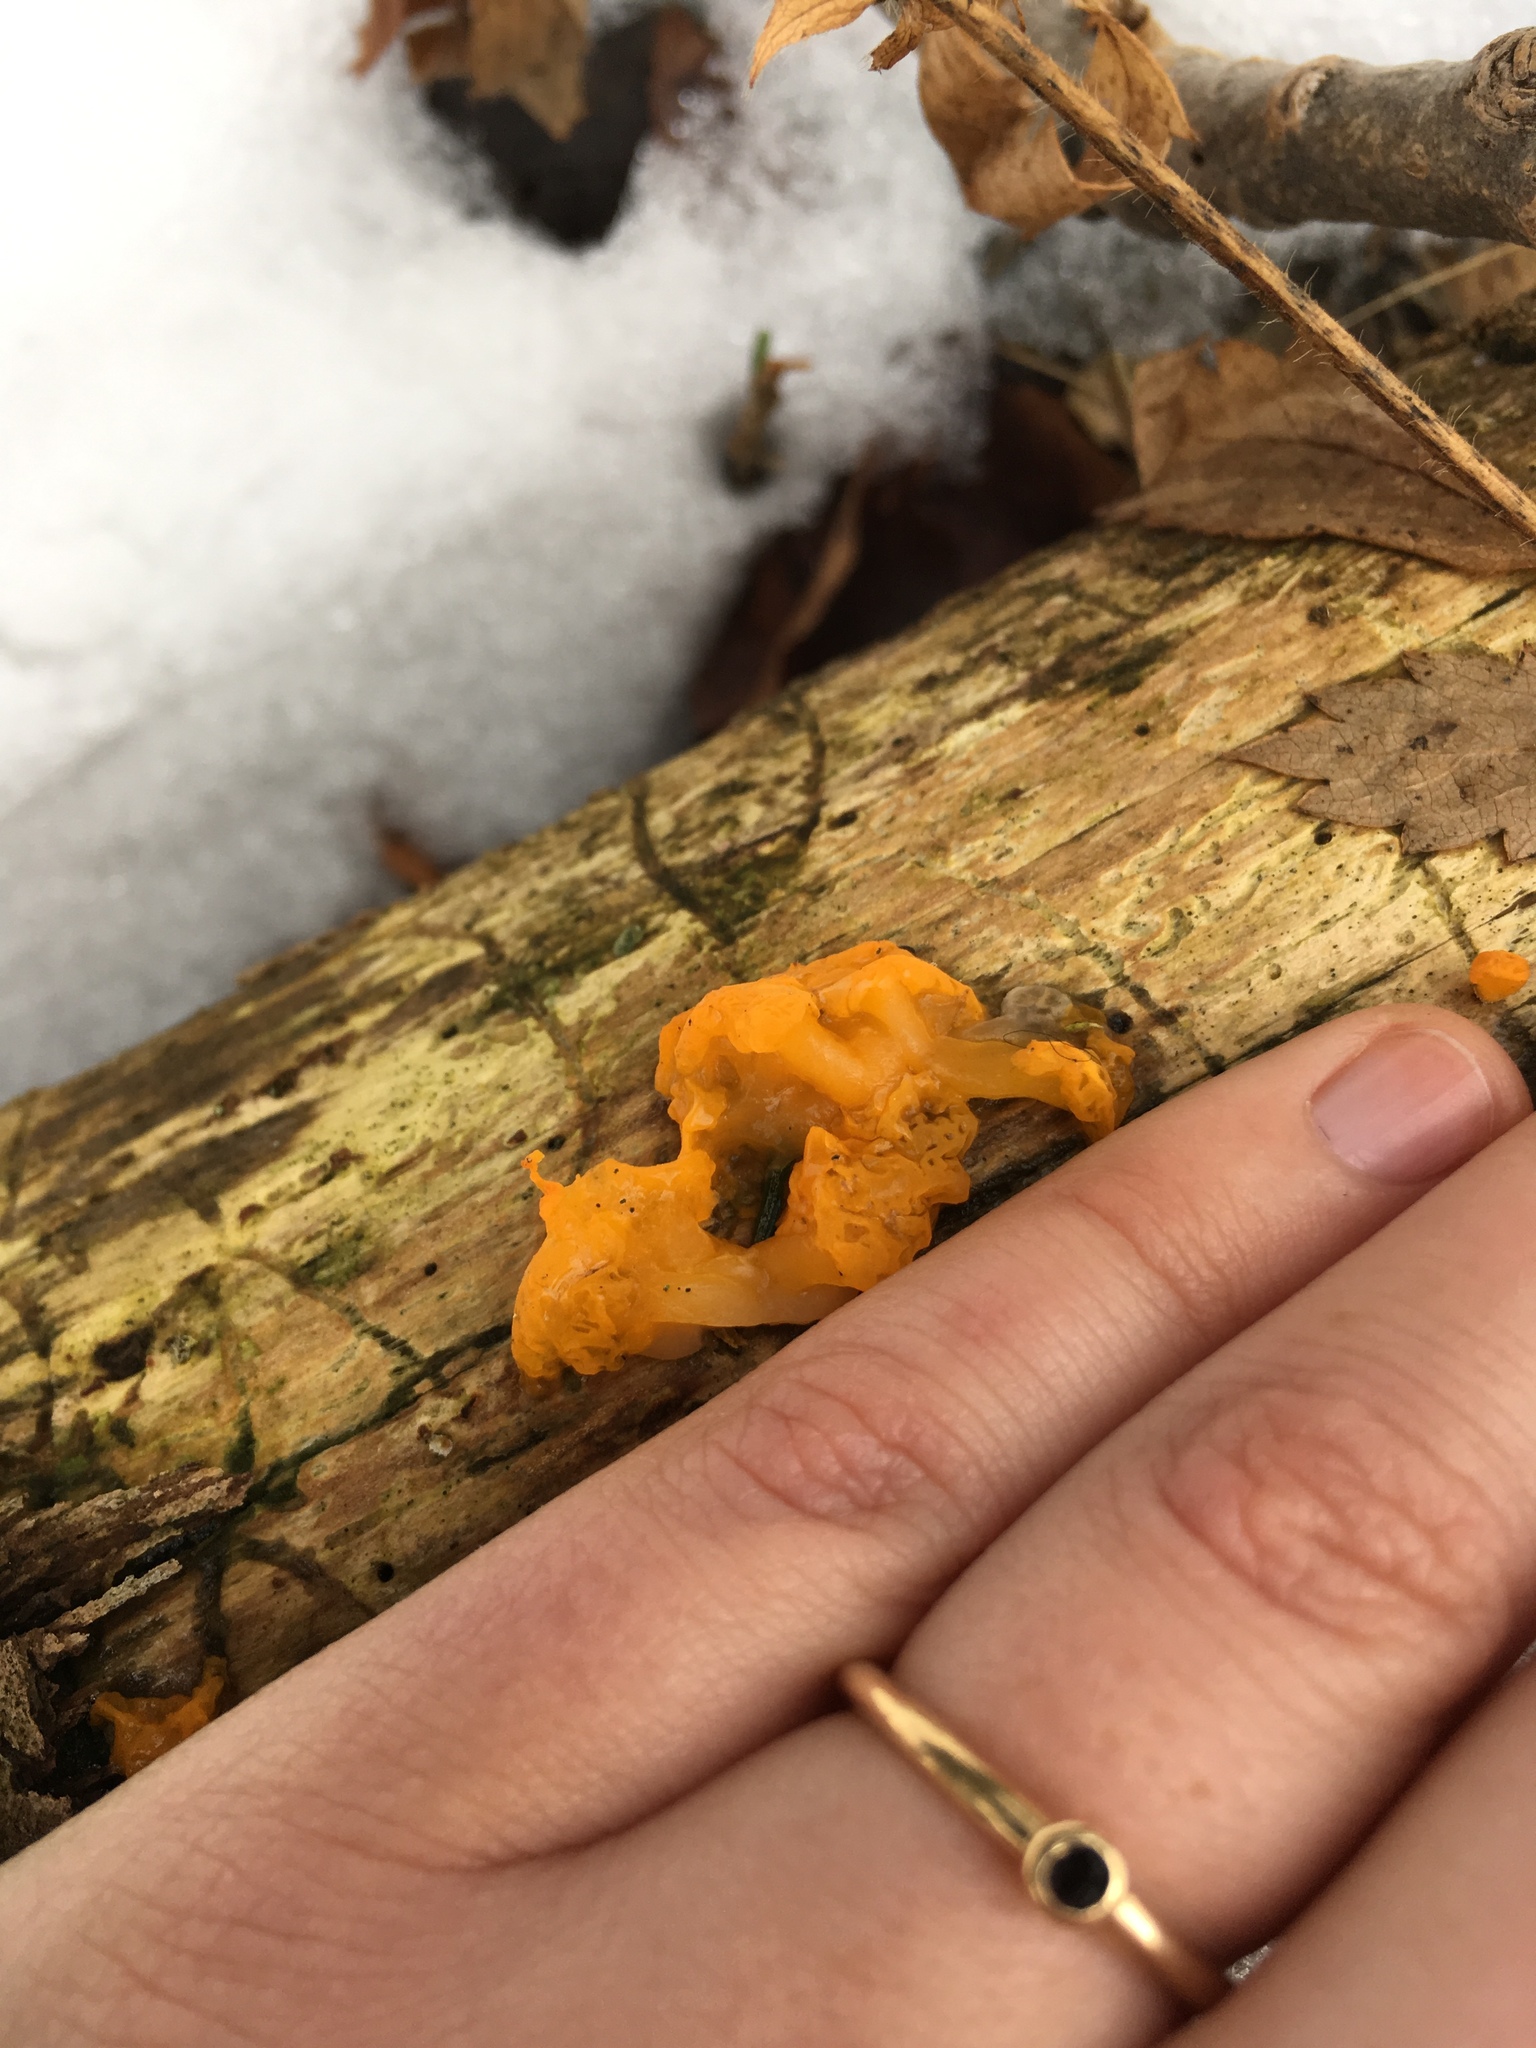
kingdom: Fungi
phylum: Basidiomycota
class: Dacrymycetes
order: Dacrymycetales
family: Dacrymycetaceae
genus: Dacrymyces
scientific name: Dacrymyces chrysospermus
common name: Orange jelly spot
